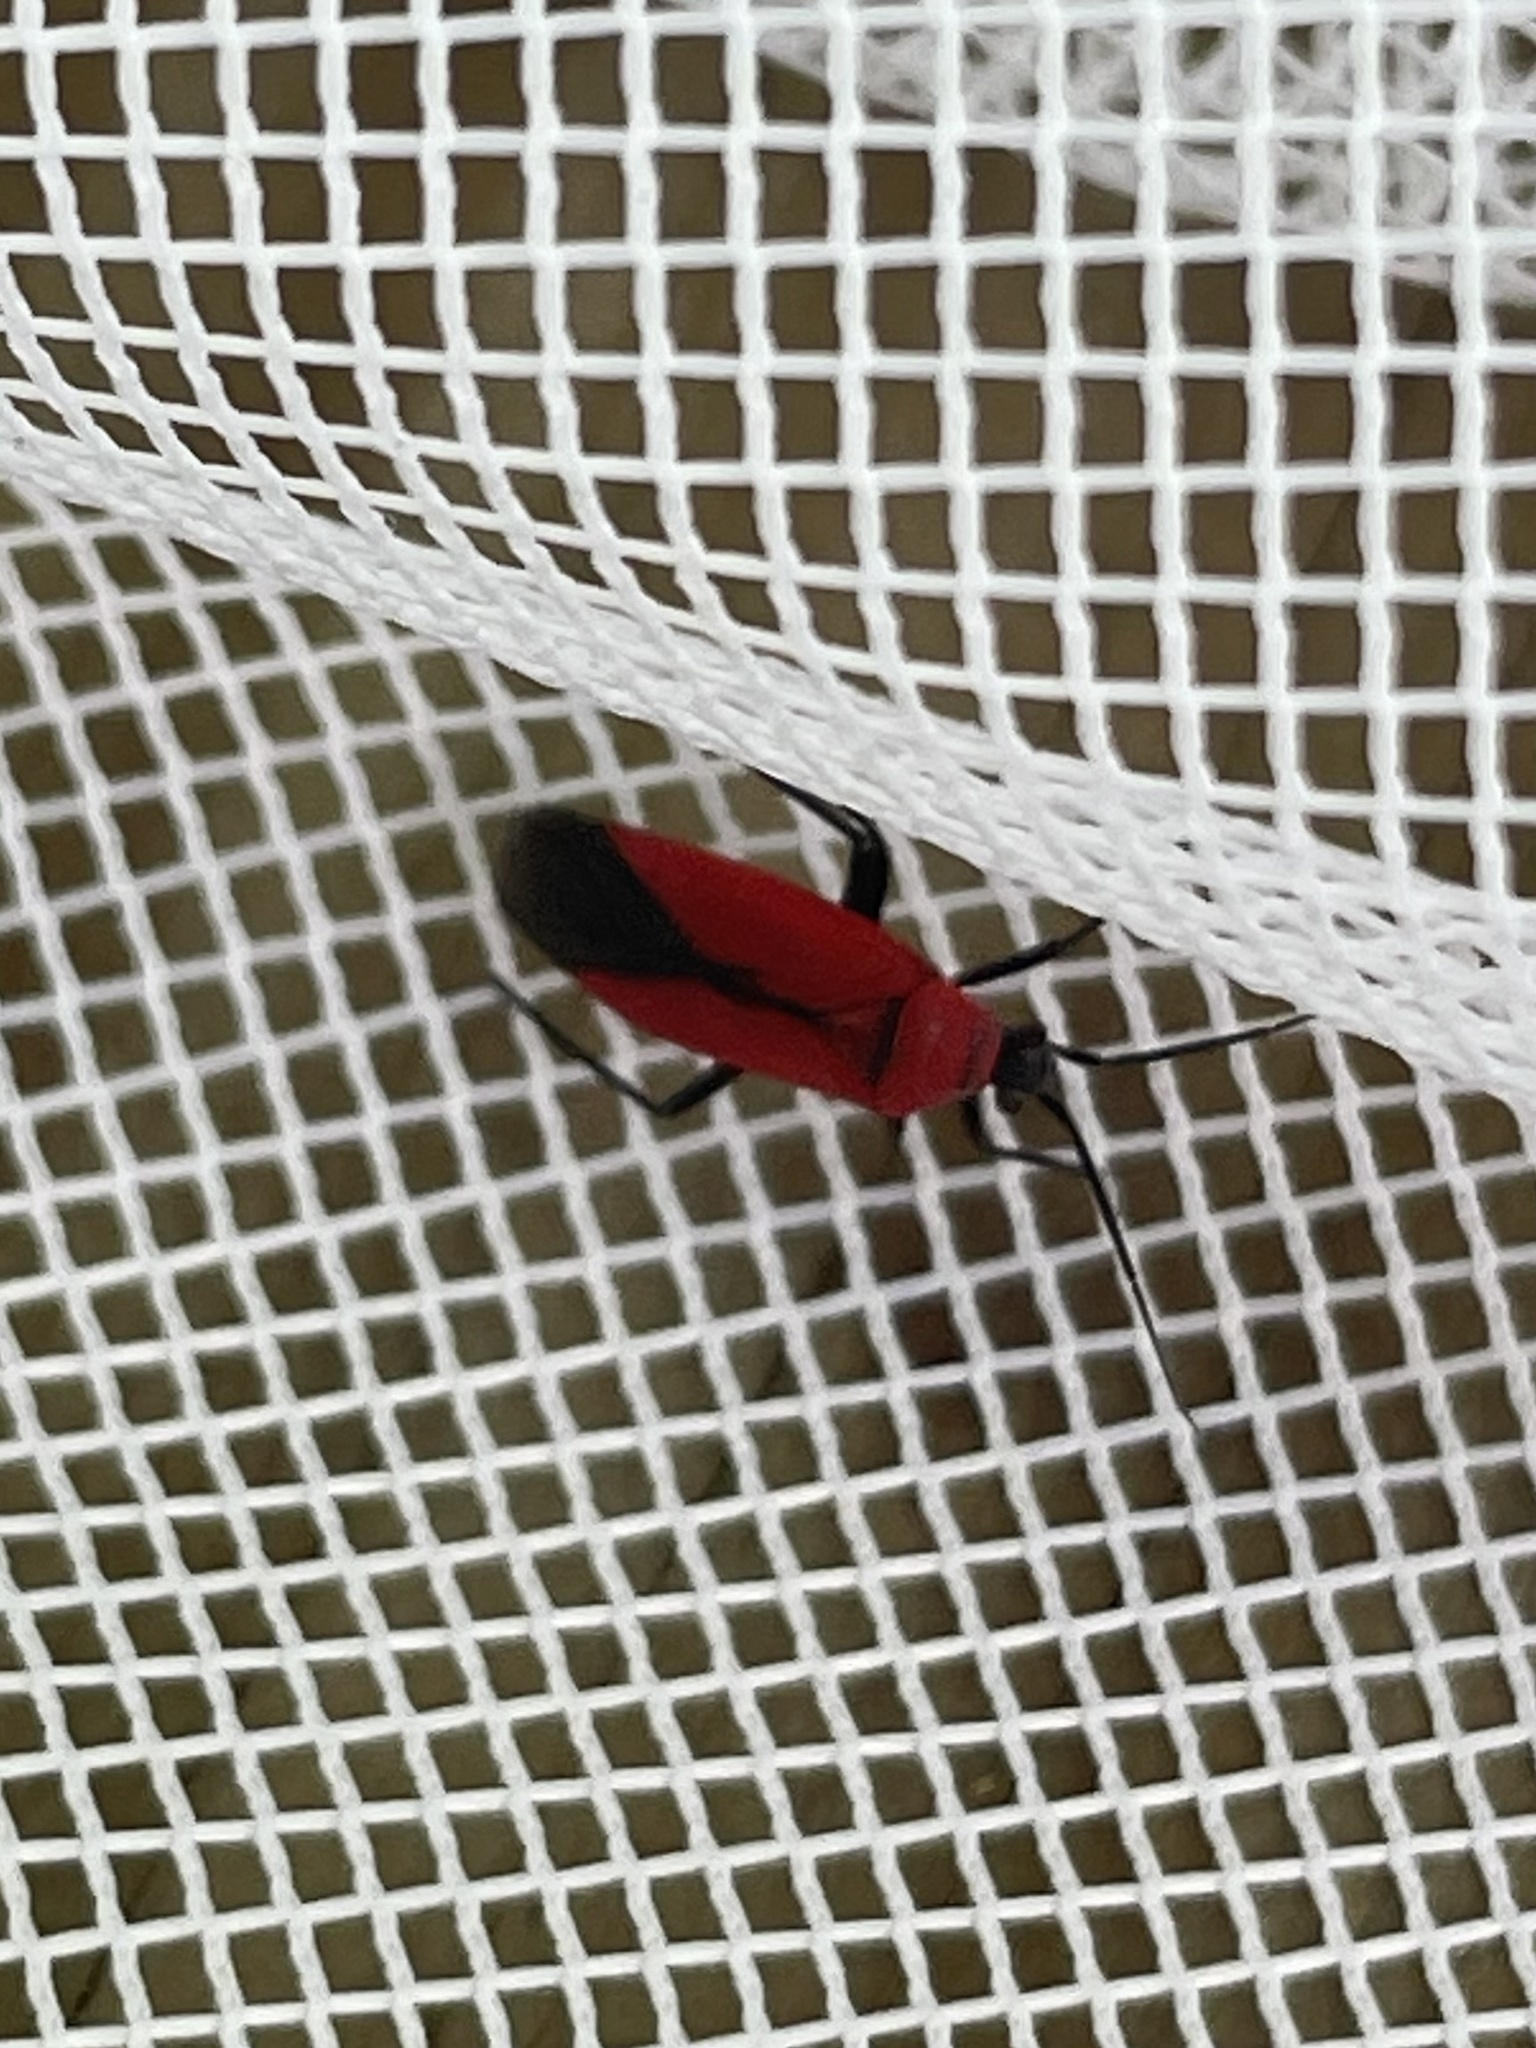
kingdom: Animalia
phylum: Arthropoda
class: Insecta
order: Hemiptera
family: Miridae
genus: Lopidea
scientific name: Lopidea major
